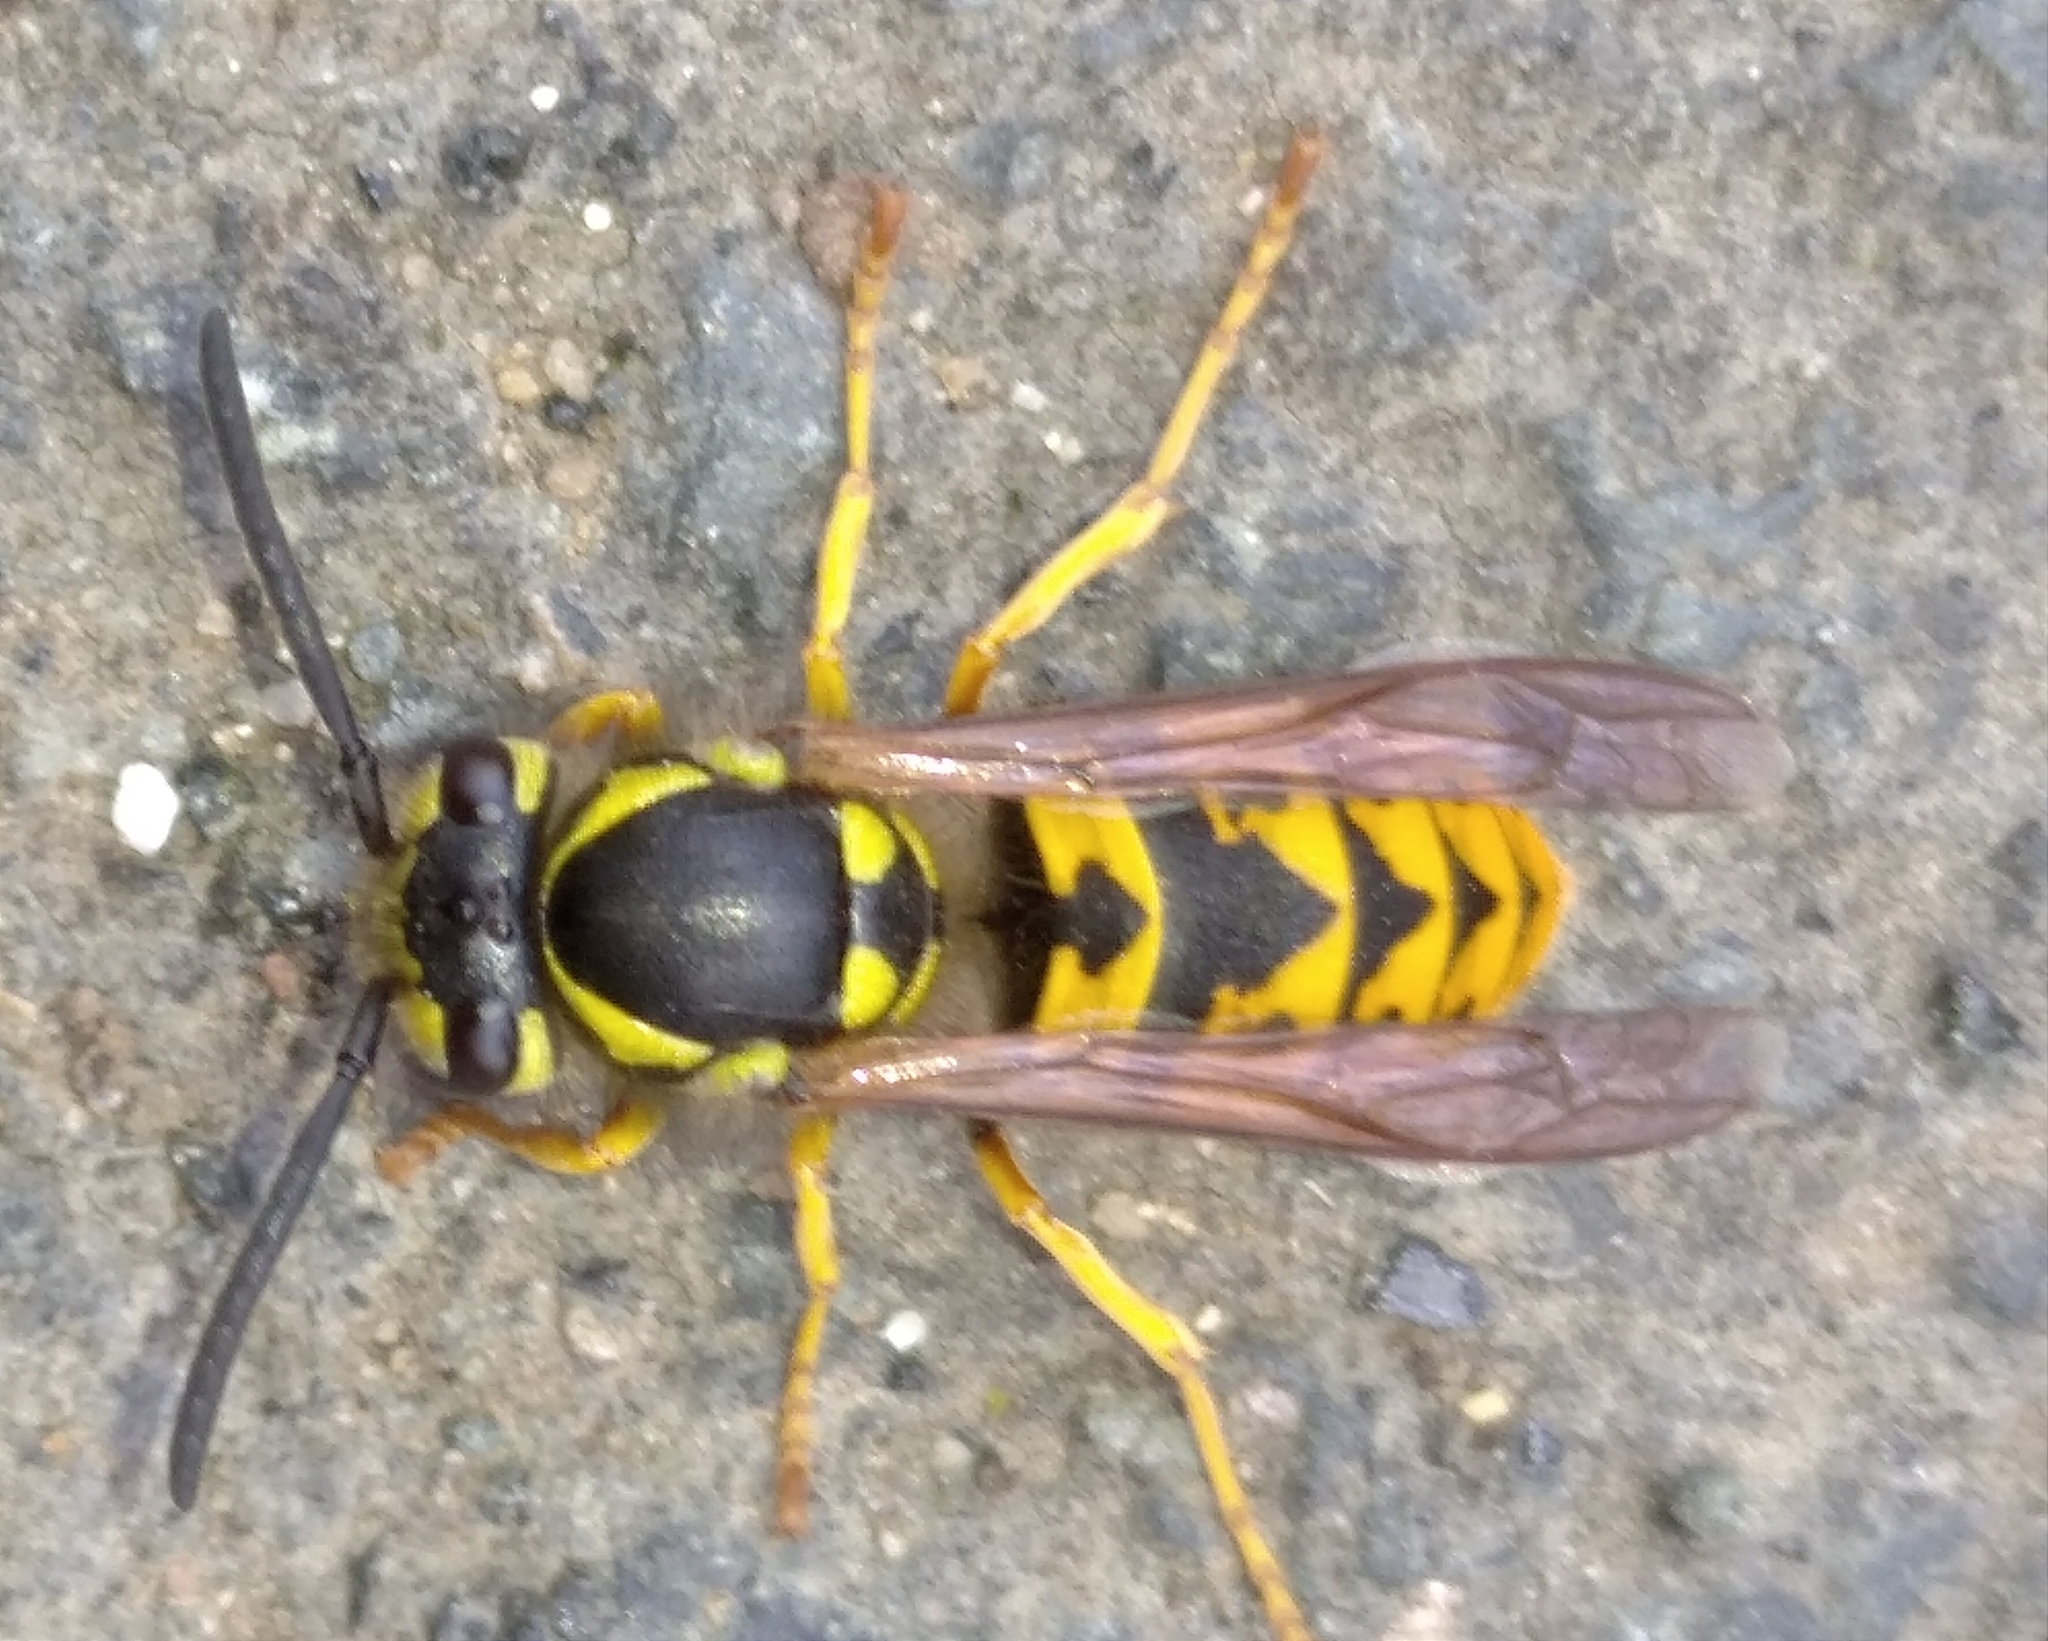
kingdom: Animalia
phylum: Arthropoda
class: Insecta
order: Hymenoptera
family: Vespidae
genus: Vespula
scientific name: Vespula germanica
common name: German wasp
